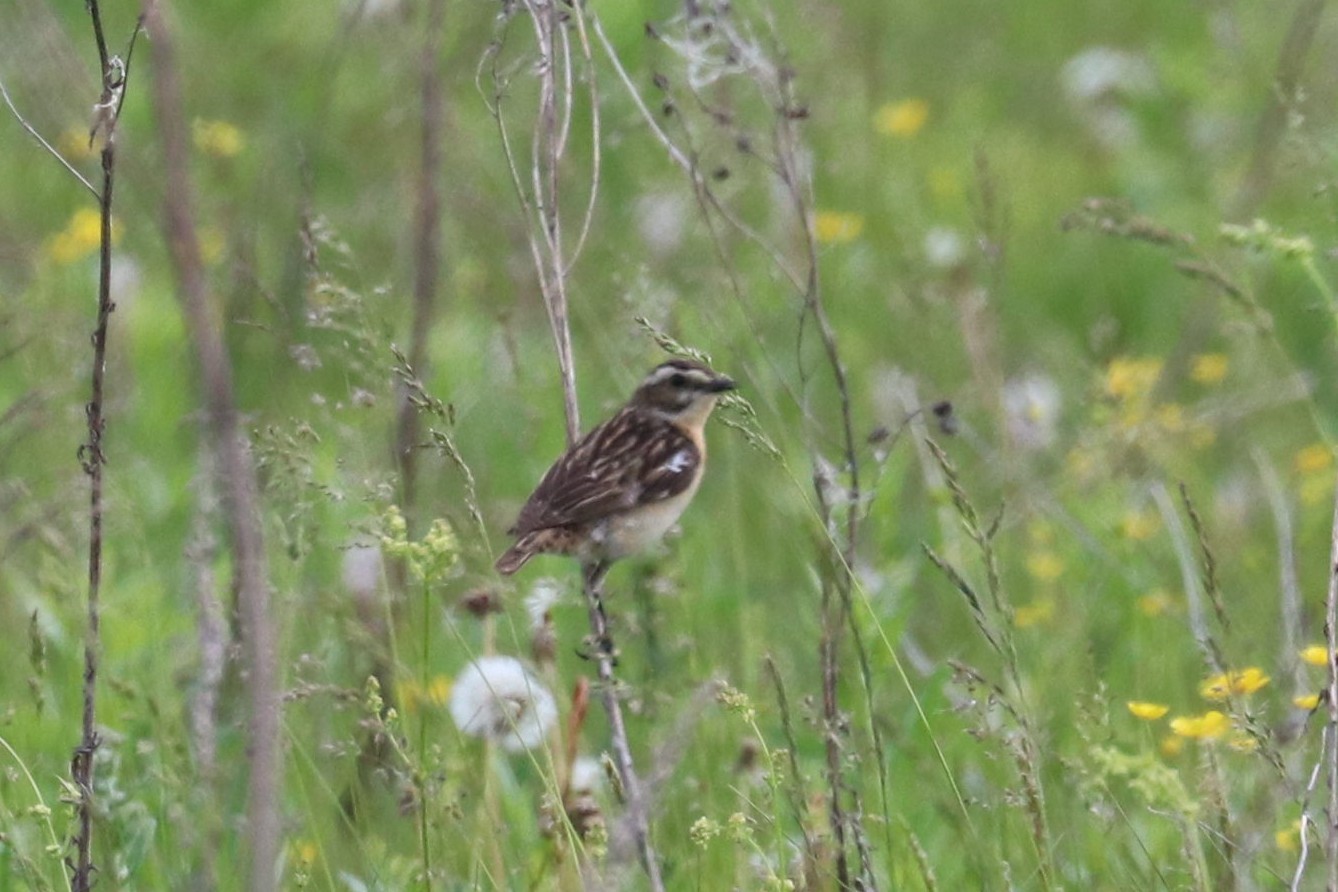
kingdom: Animalia
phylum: Chordata
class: Aves
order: Passeriformes
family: Muscicapidae
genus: Saxicola
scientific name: Saxicola rubetra
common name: Whinchat
